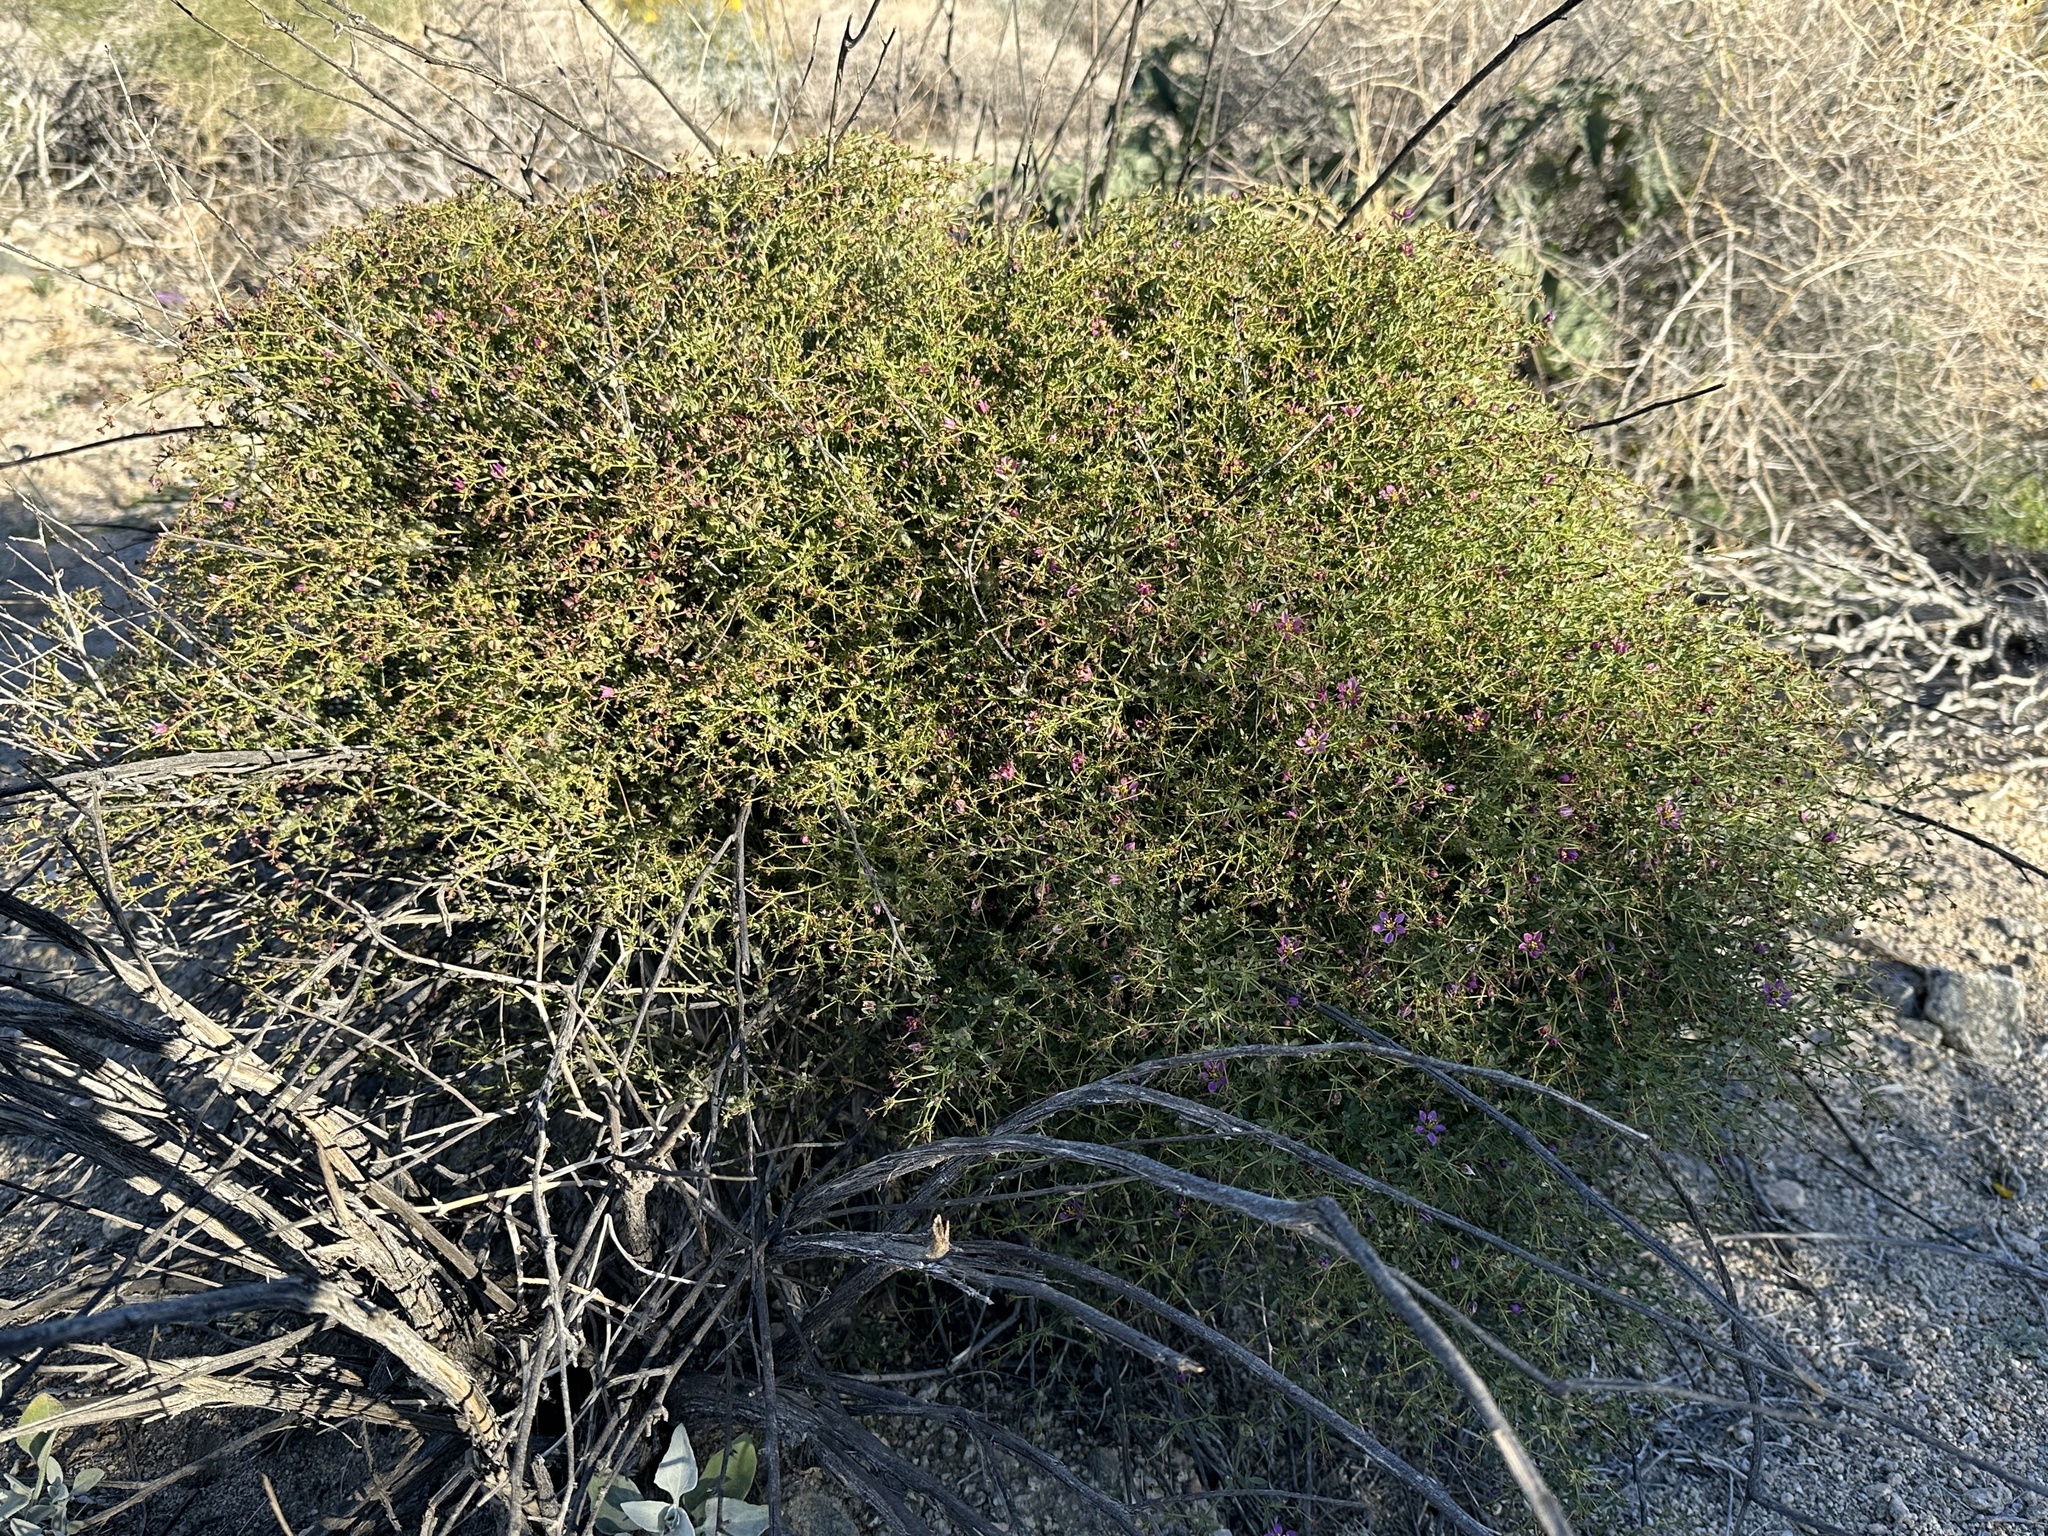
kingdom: Plantae
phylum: Tracheophyta
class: Magnoliopsida
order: Zygophyllales
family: Zygophyllaceae
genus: Fagonia
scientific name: Fagonia laevis
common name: California fagonbush
